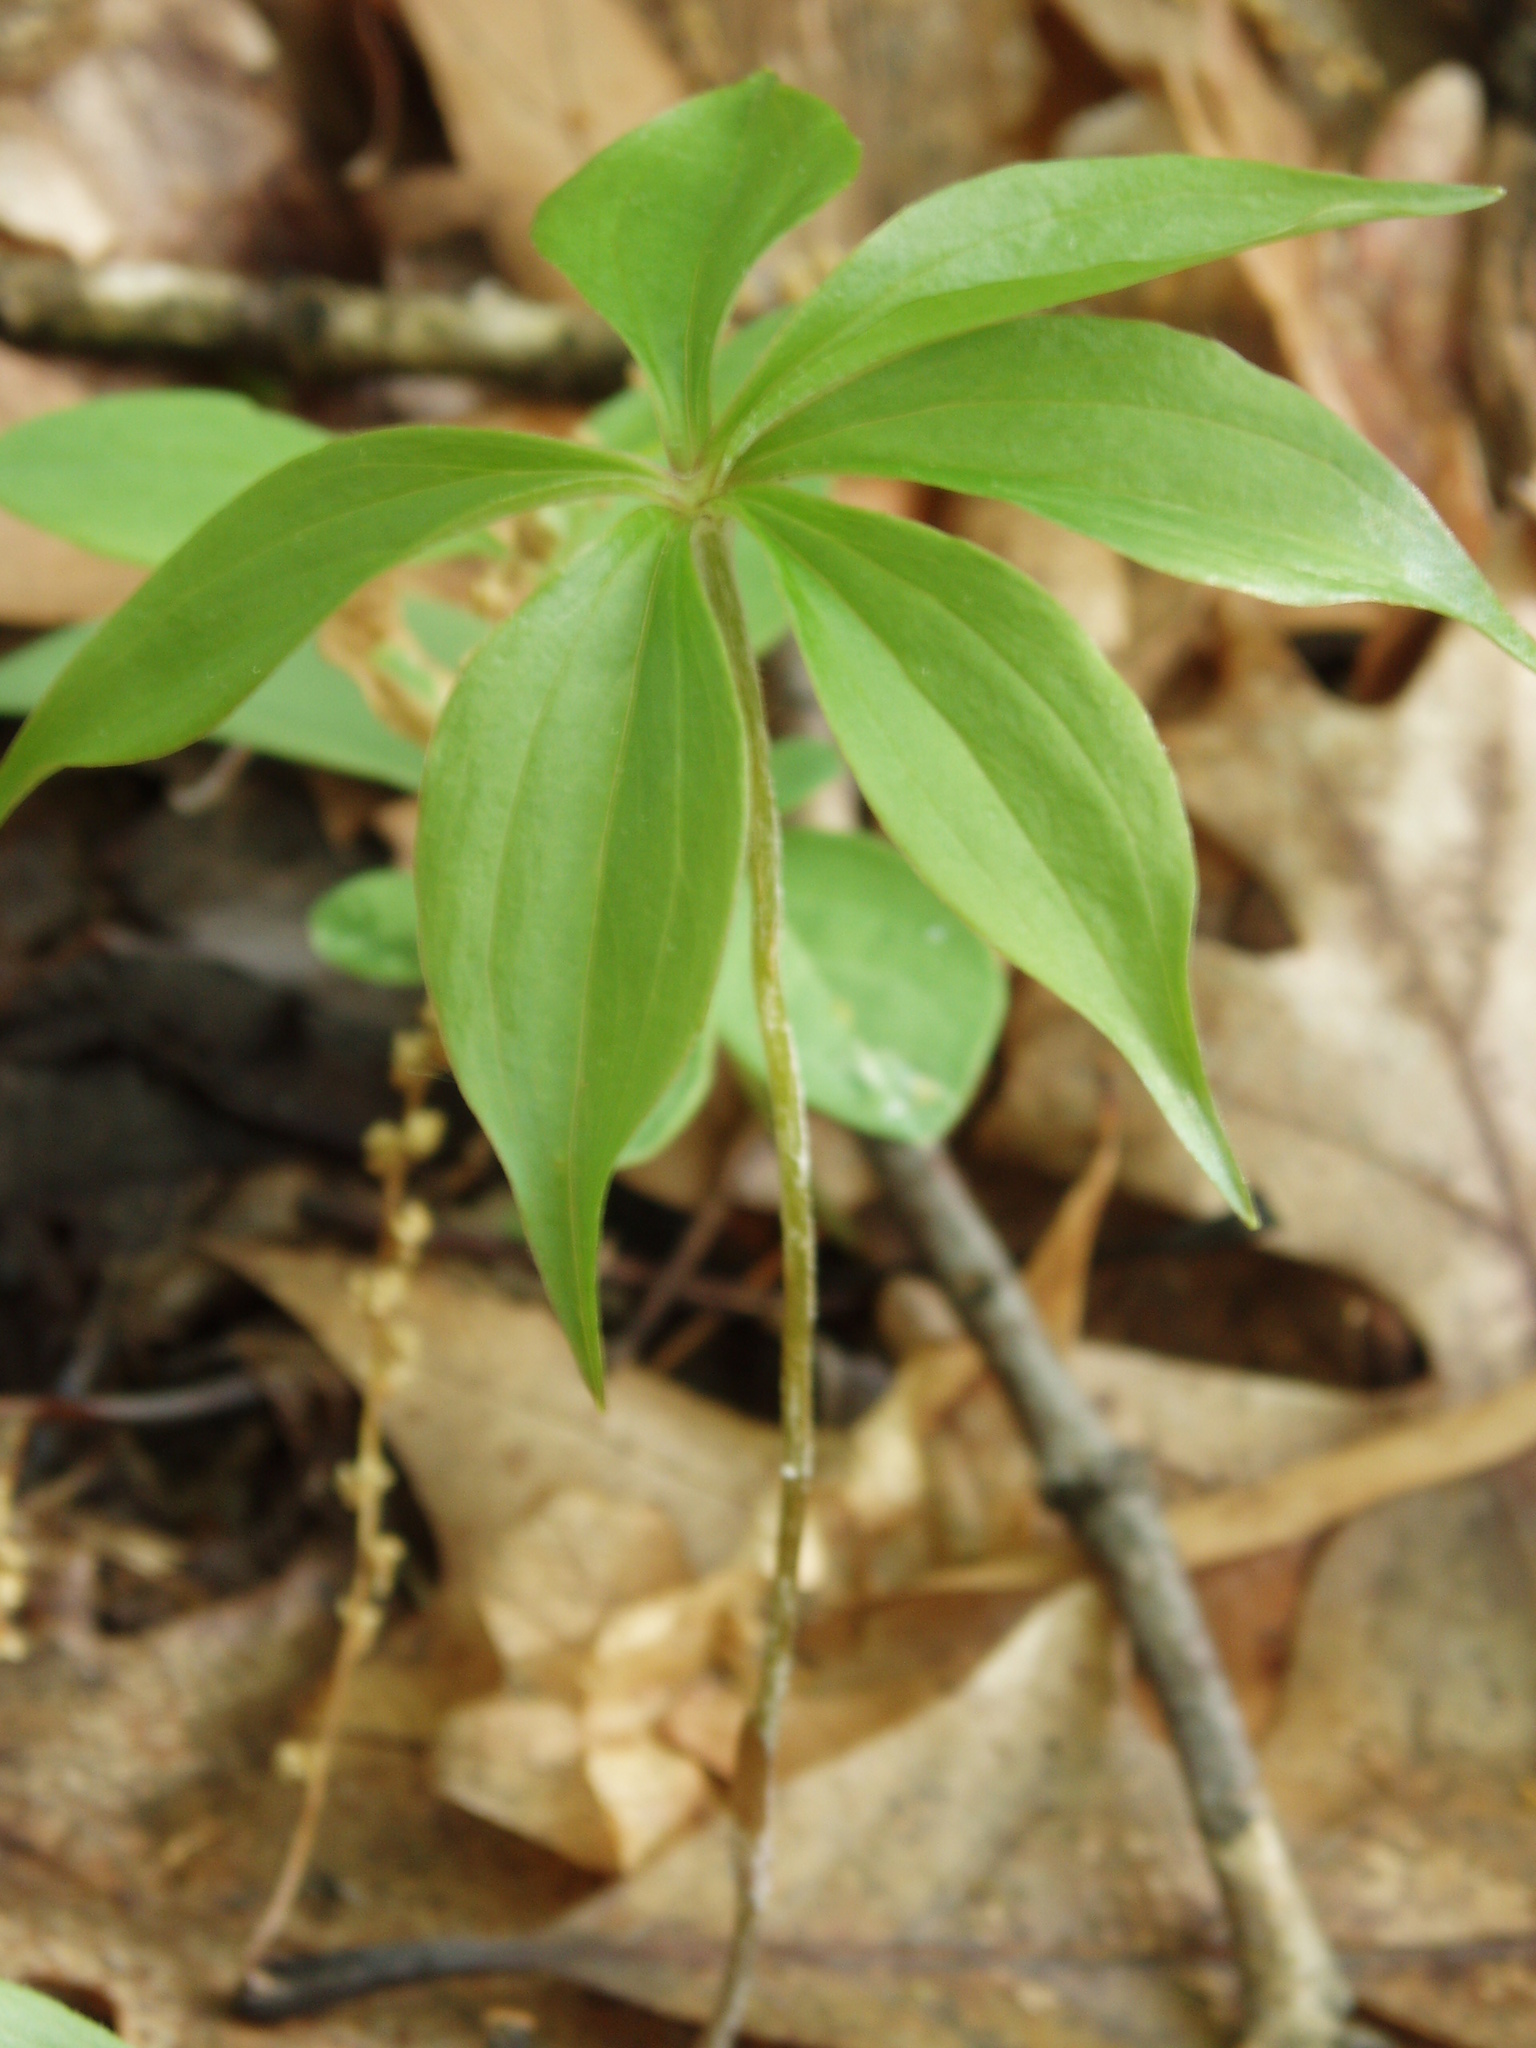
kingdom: Plantae
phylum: Tracheophyta
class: Liliopsida
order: Liliales
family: Liliaceae
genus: Medeola
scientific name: Medeola virginiana
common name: Indian cucumber-root
